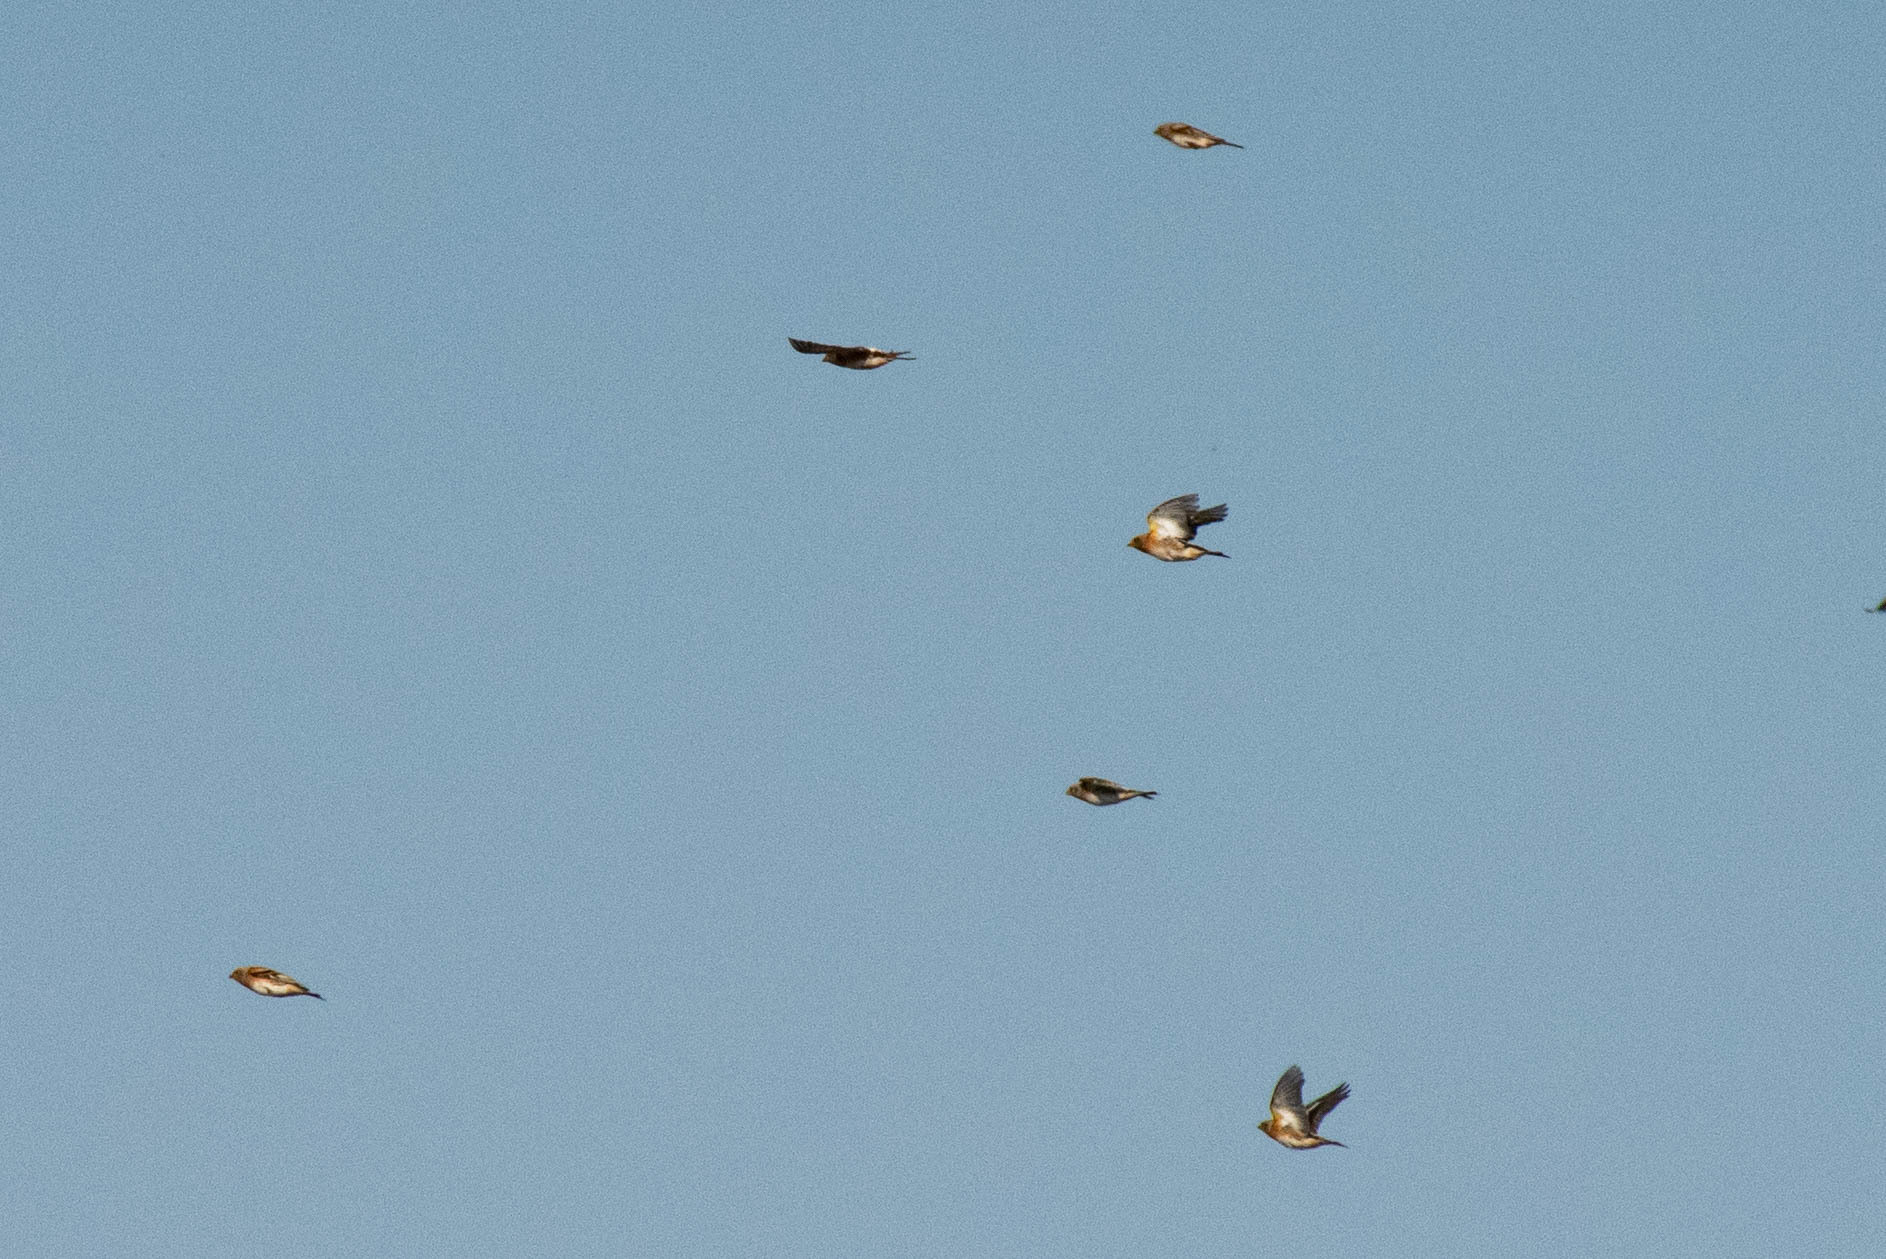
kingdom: Animalia
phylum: Chordata
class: Aves
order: Passeriformes
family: Fringillidae
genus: Fringilla
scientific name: Fringilla montifringilla
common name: Brambling
